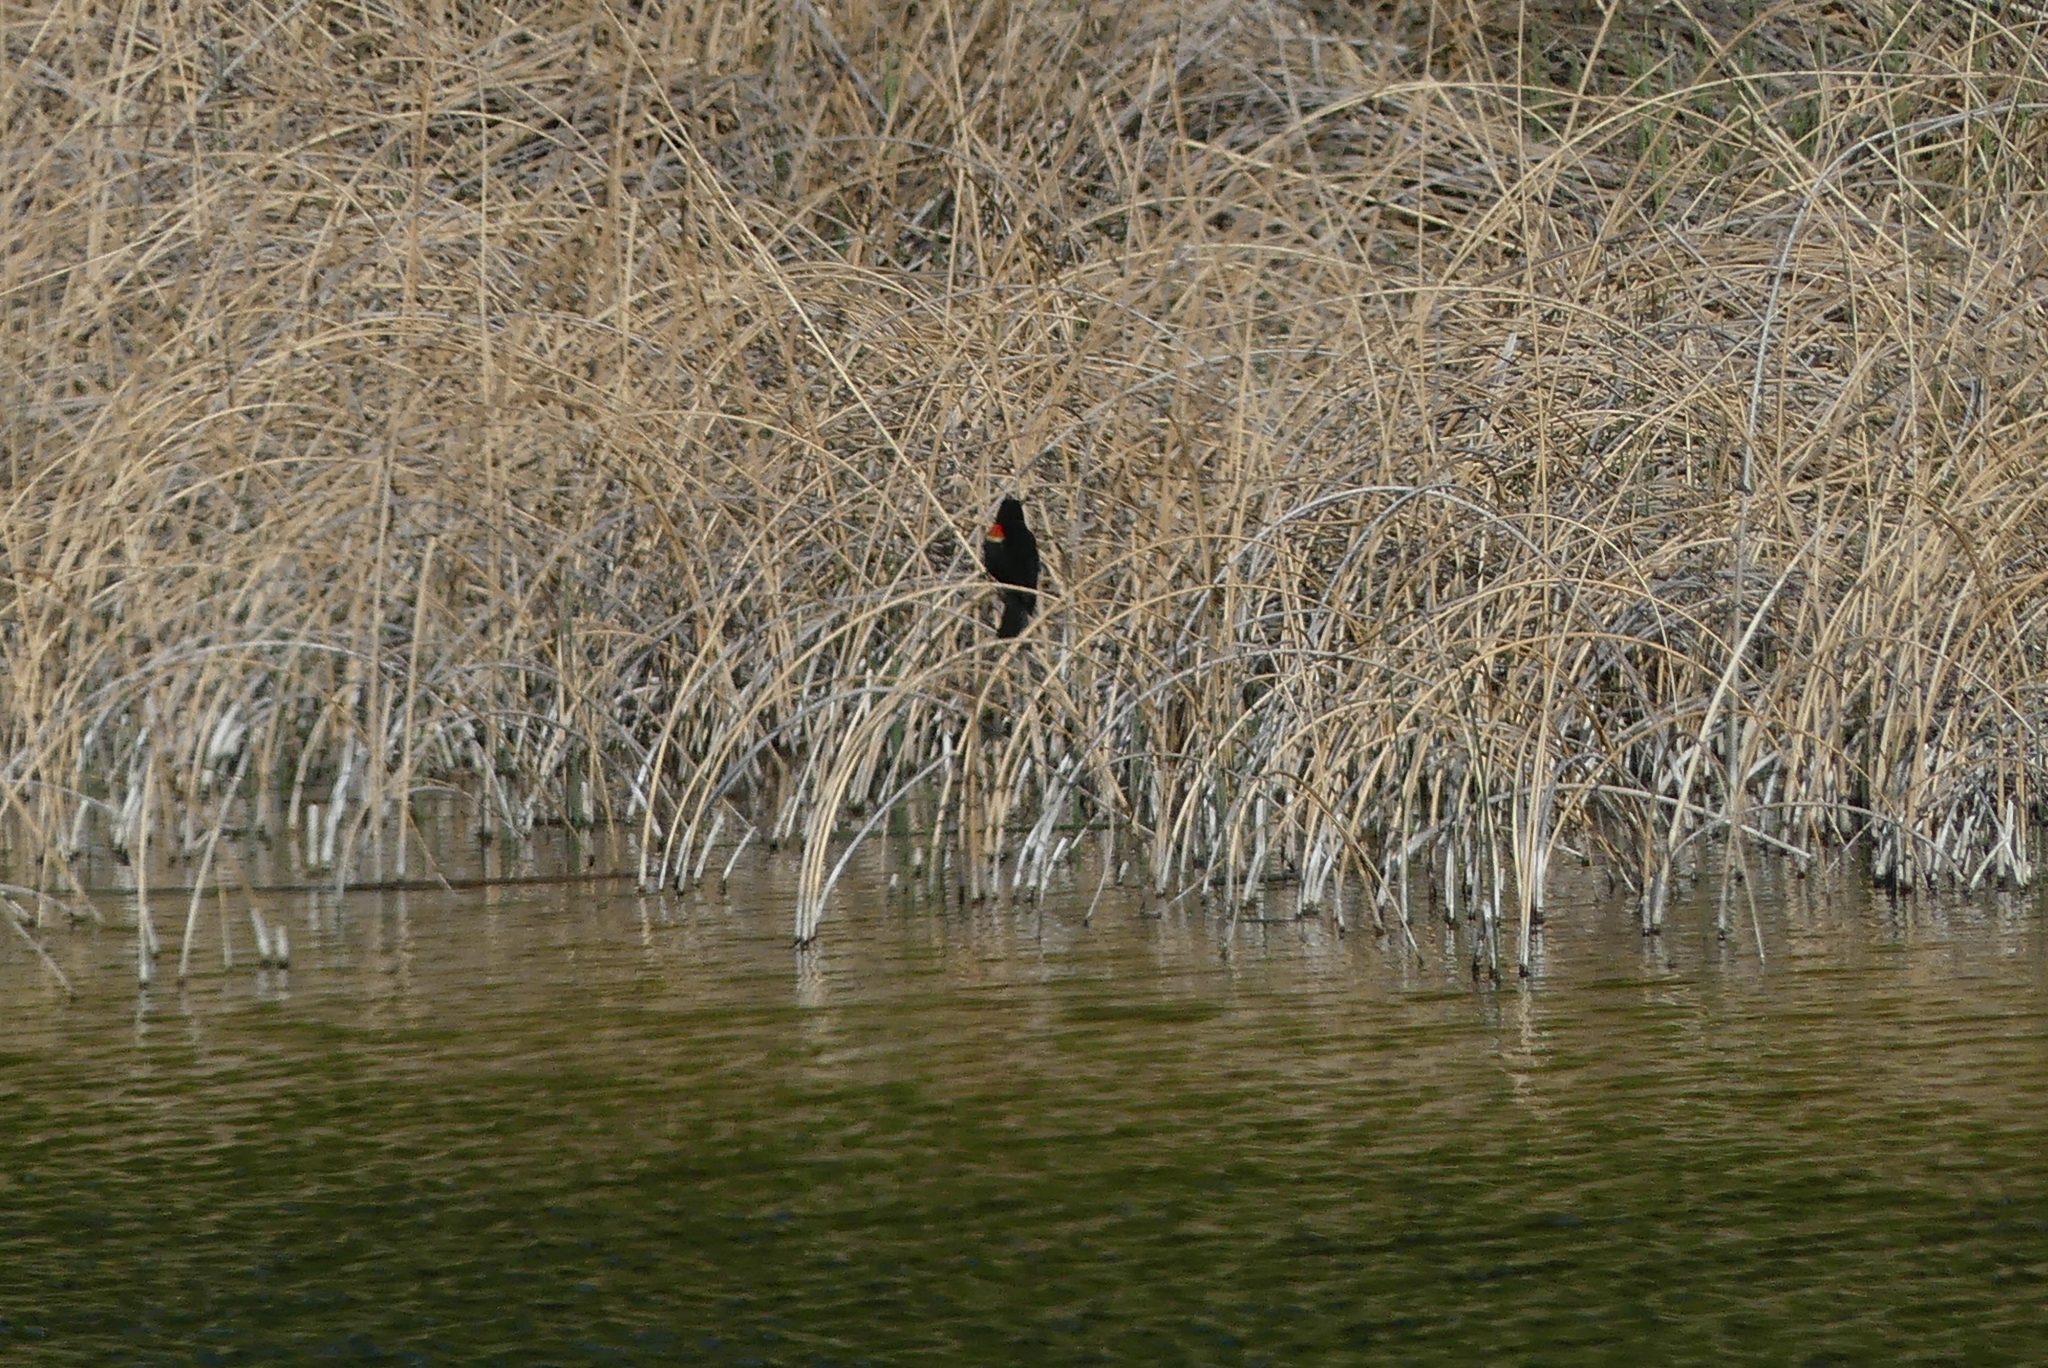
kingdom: Animalia
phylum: Chordata
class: Aves
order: Passeriformes
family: Icteridae
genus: Agelaius
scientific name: Agelaius phoeniceus
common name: Red-winged blackbird
